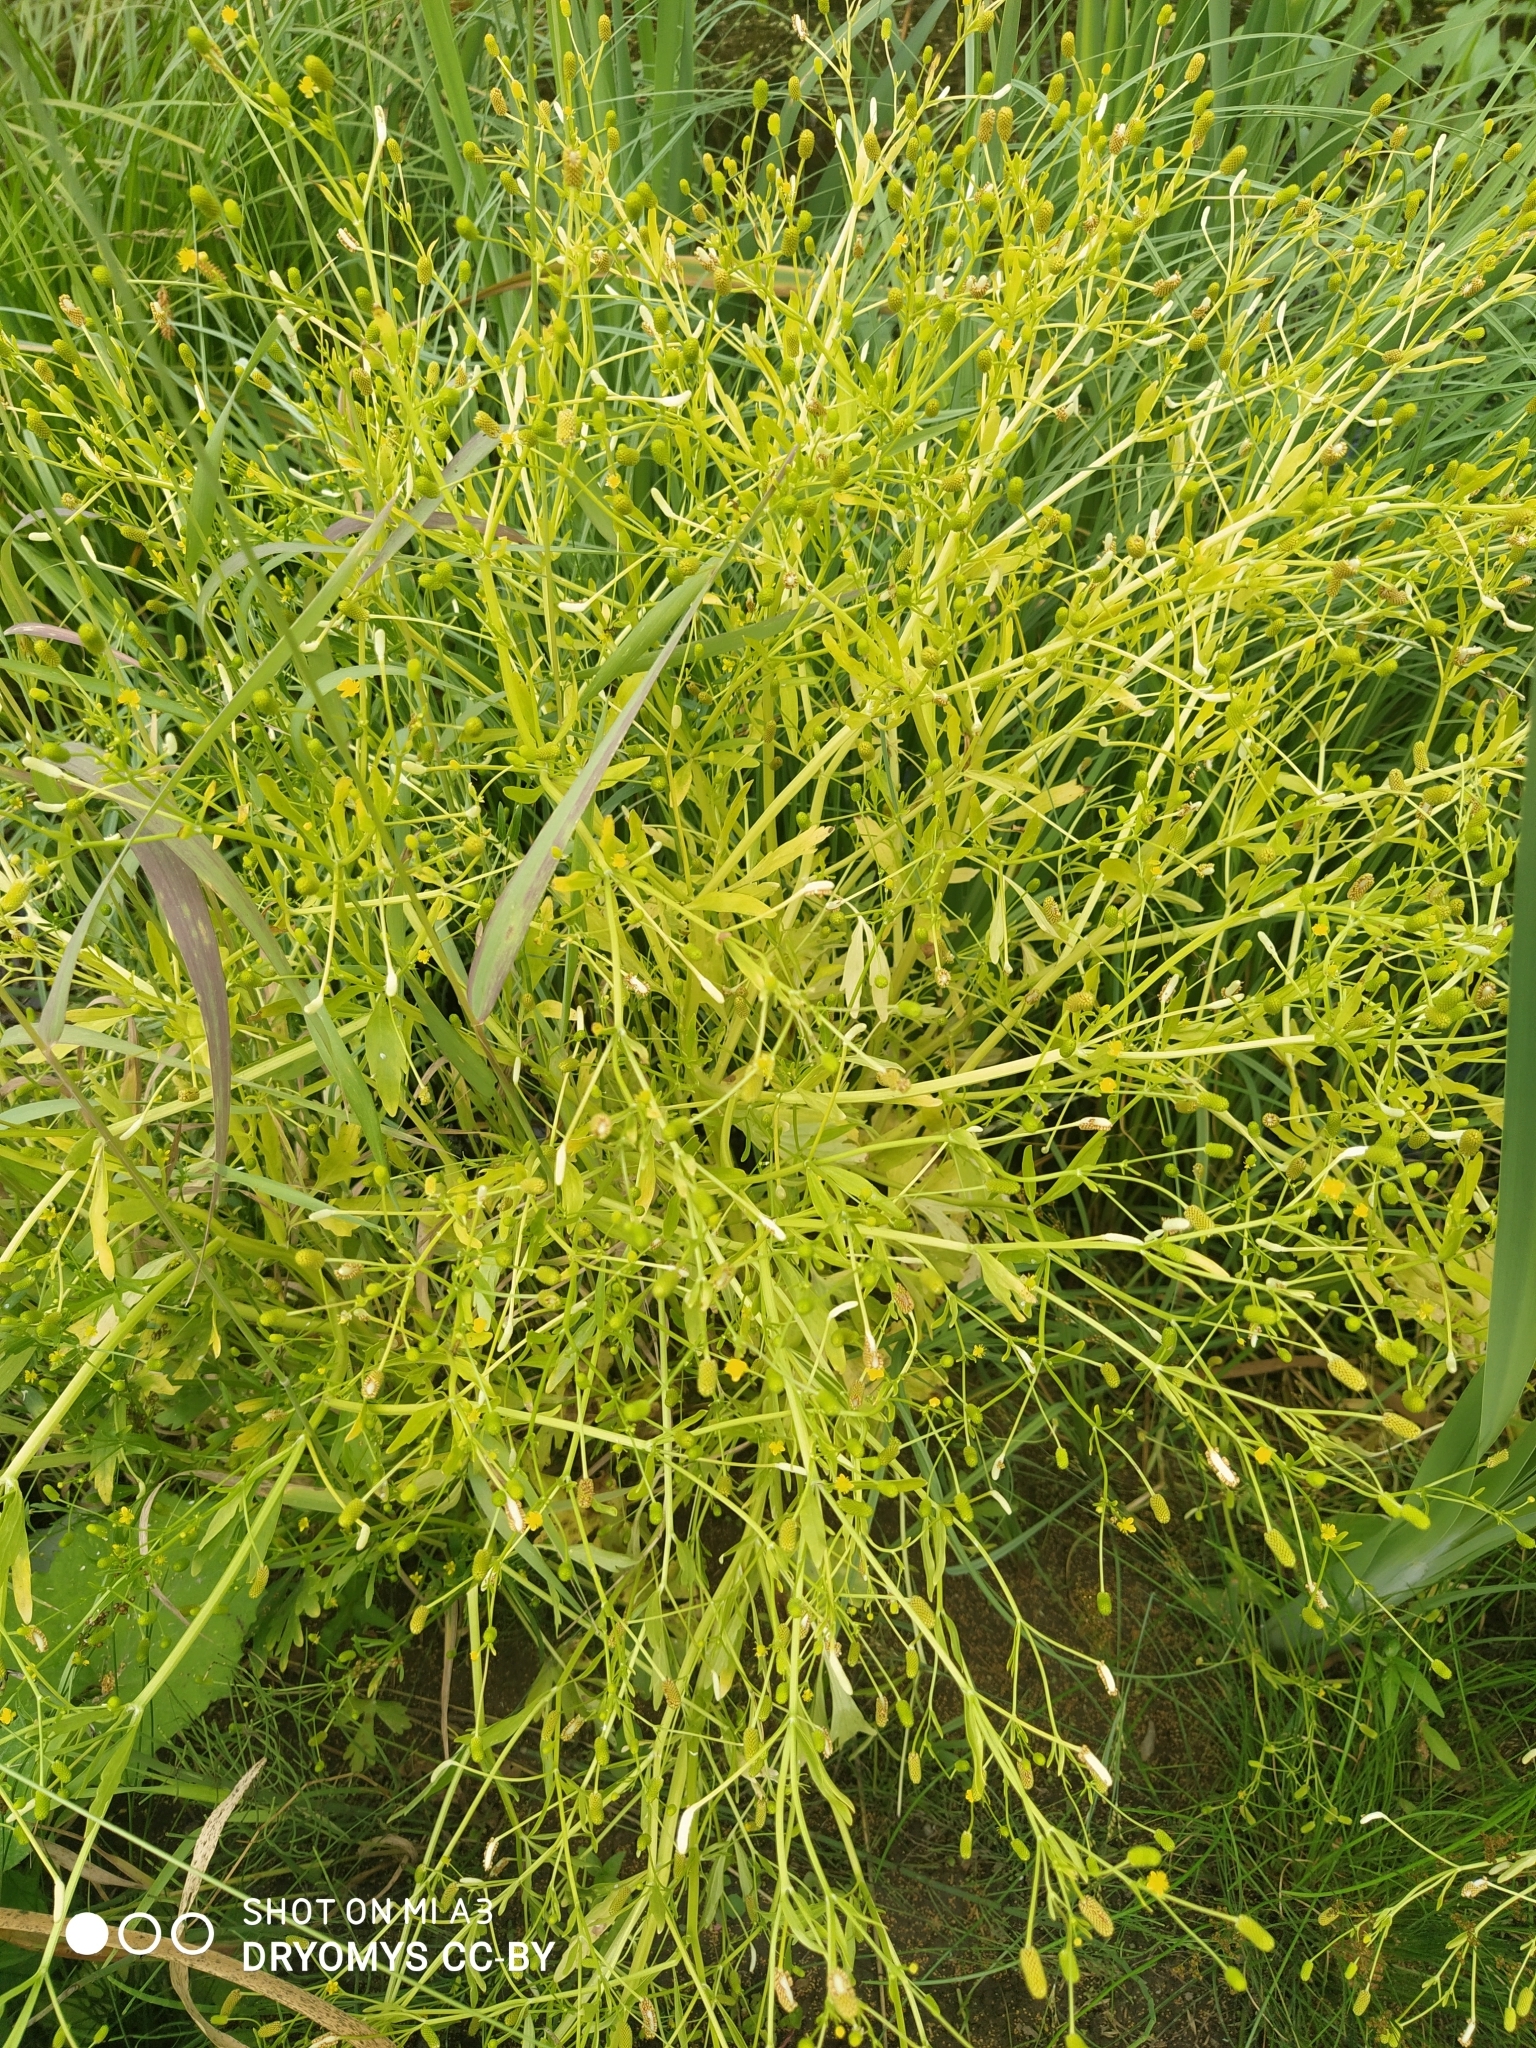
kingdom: Plantae
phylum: Tracheophyta
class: Magnoliopsida
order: Ranunculales
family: Ranunculaceae
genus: Ranunculus
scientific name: Ranunculus sceleratus
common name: Celery-leaved buttercup
